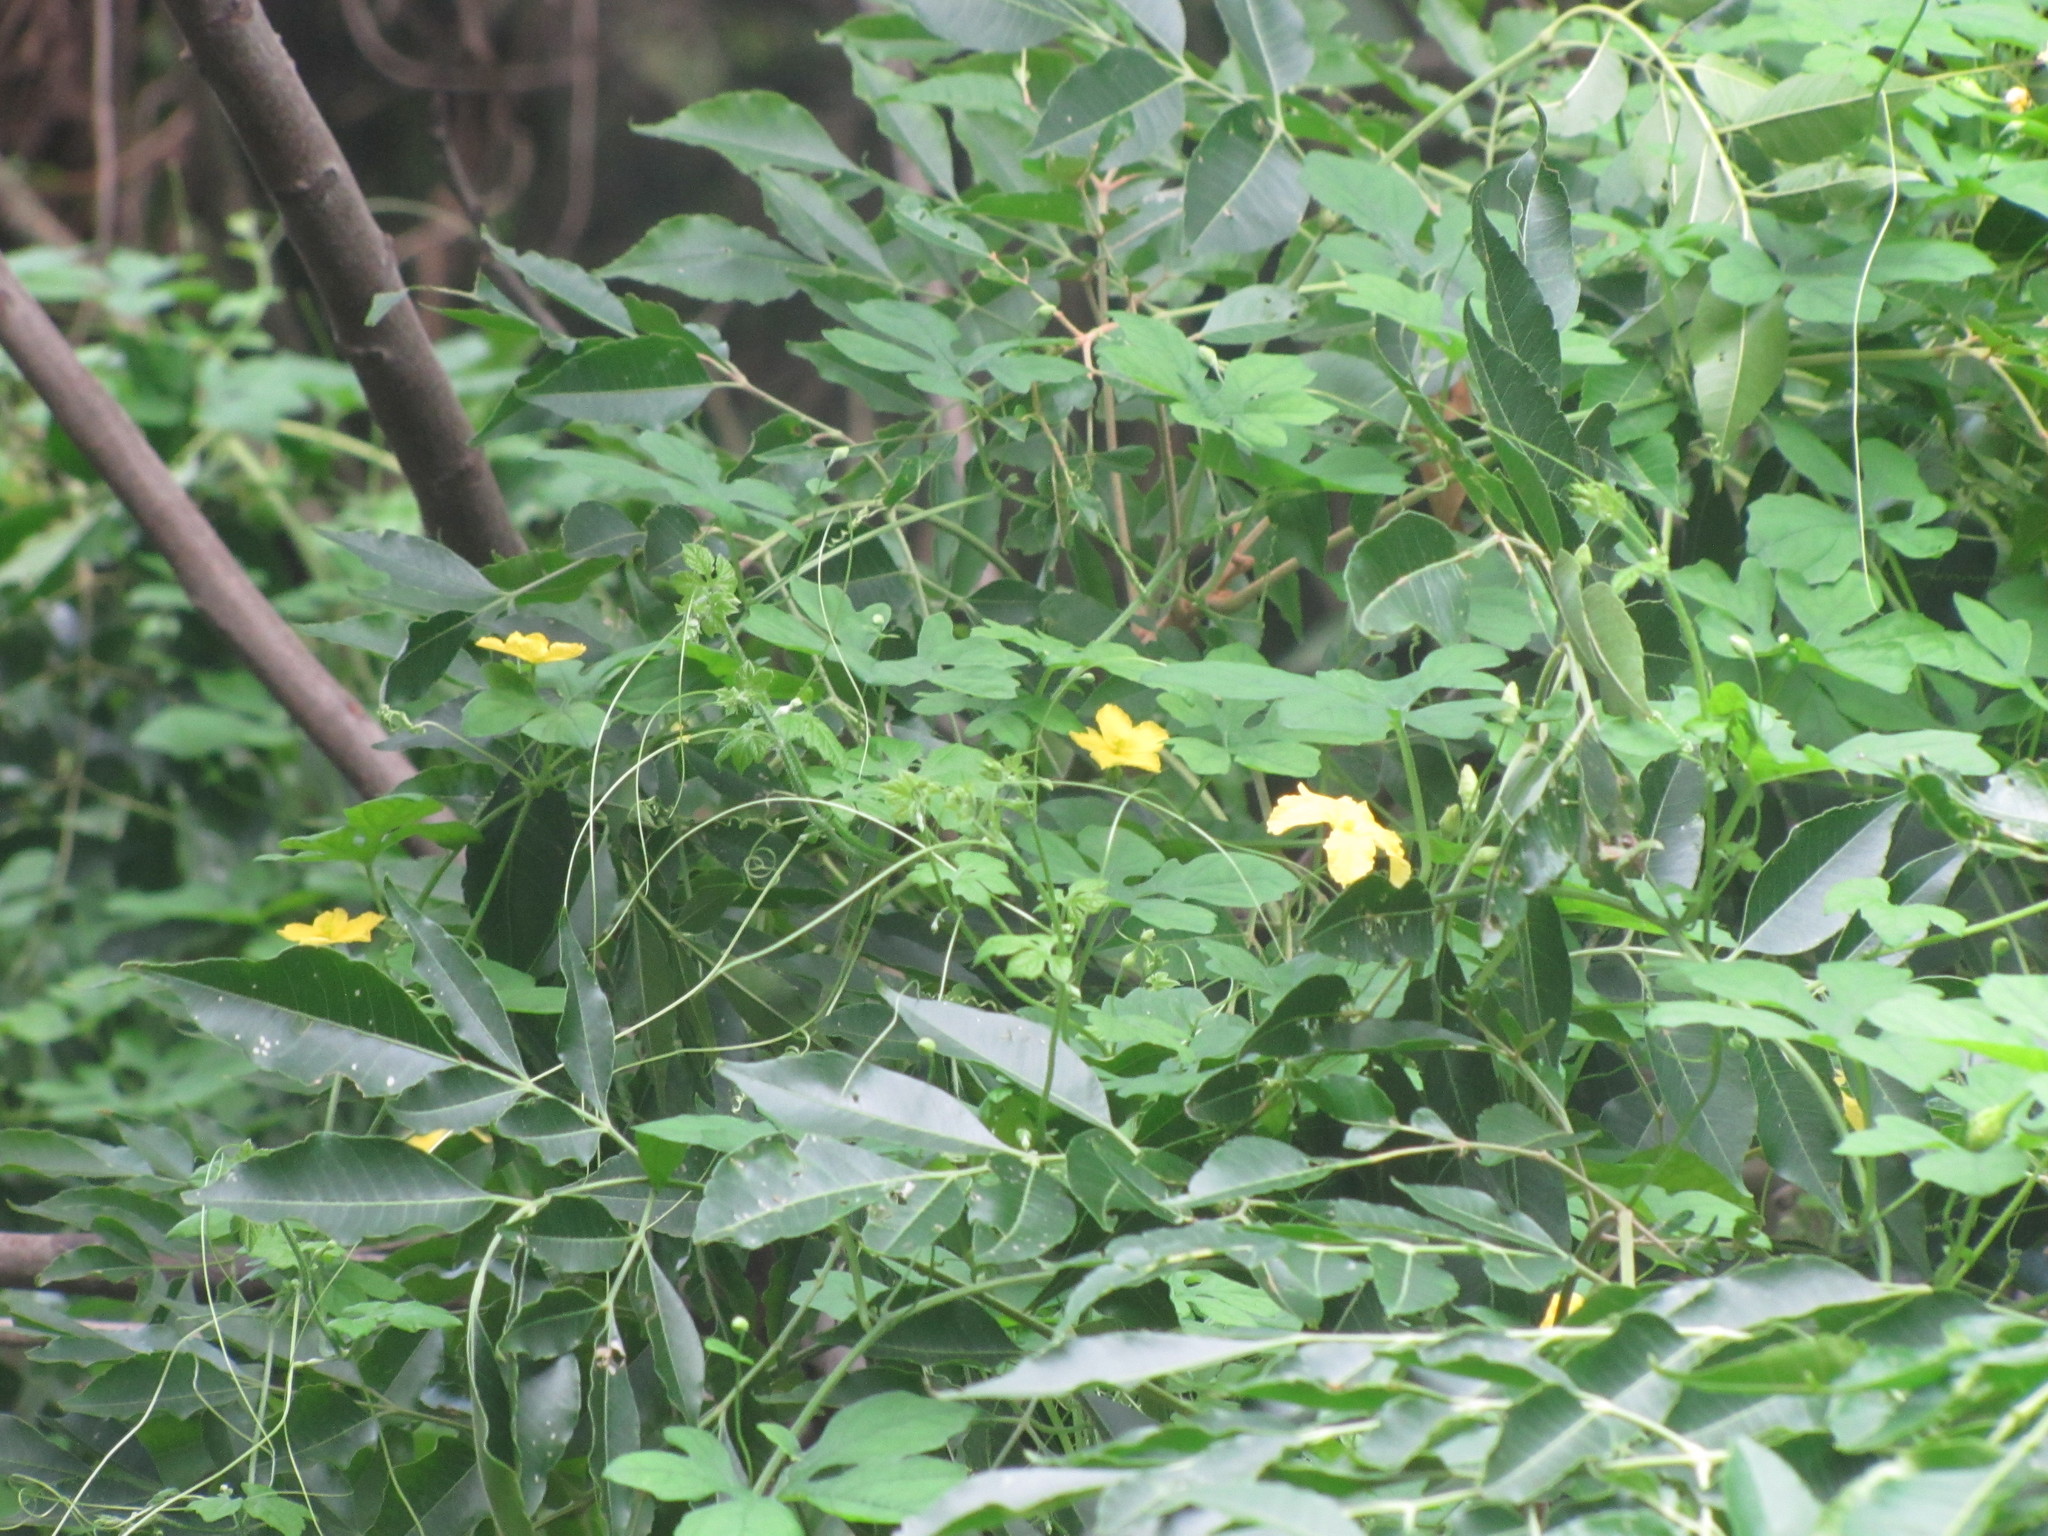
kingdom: Plantae
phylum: Tracheophyta
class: Magnoliopsida
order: Cucurbitales
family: Cucurbitaceae
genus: Momordica
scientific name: Momordica charantia
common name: Balsampear
